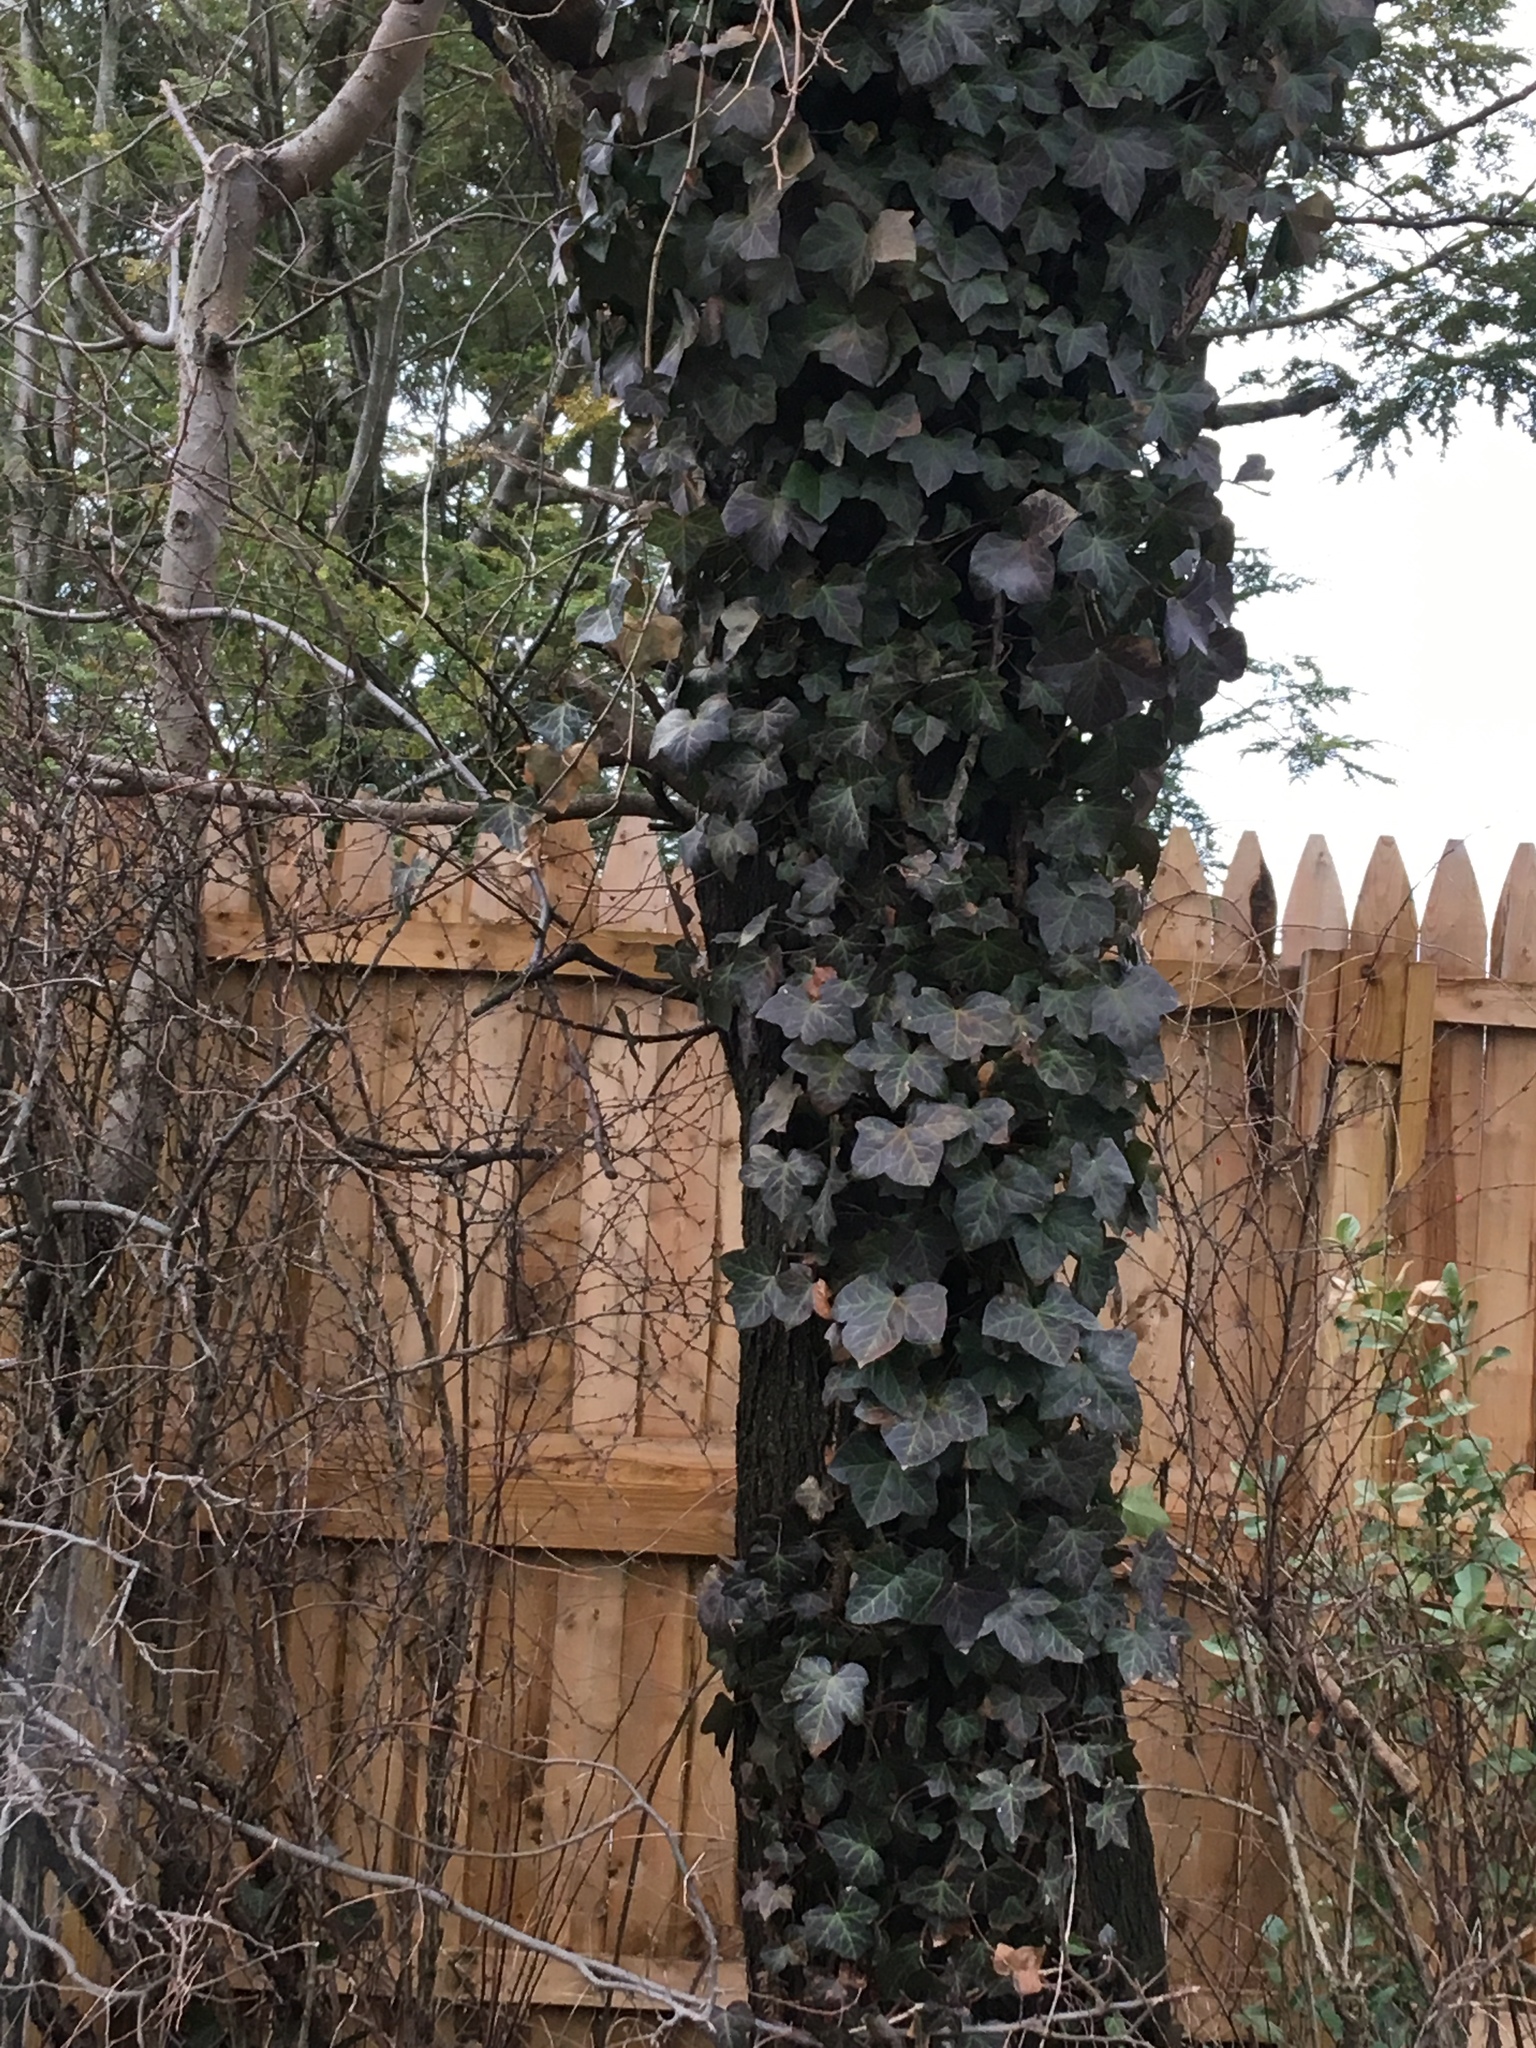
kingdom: Plantae
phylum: Tracheophyta
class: Magnoliopsida
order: Apiales
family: Araliaceae
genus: Hedera
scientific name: Hedera helix
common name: Ivy
